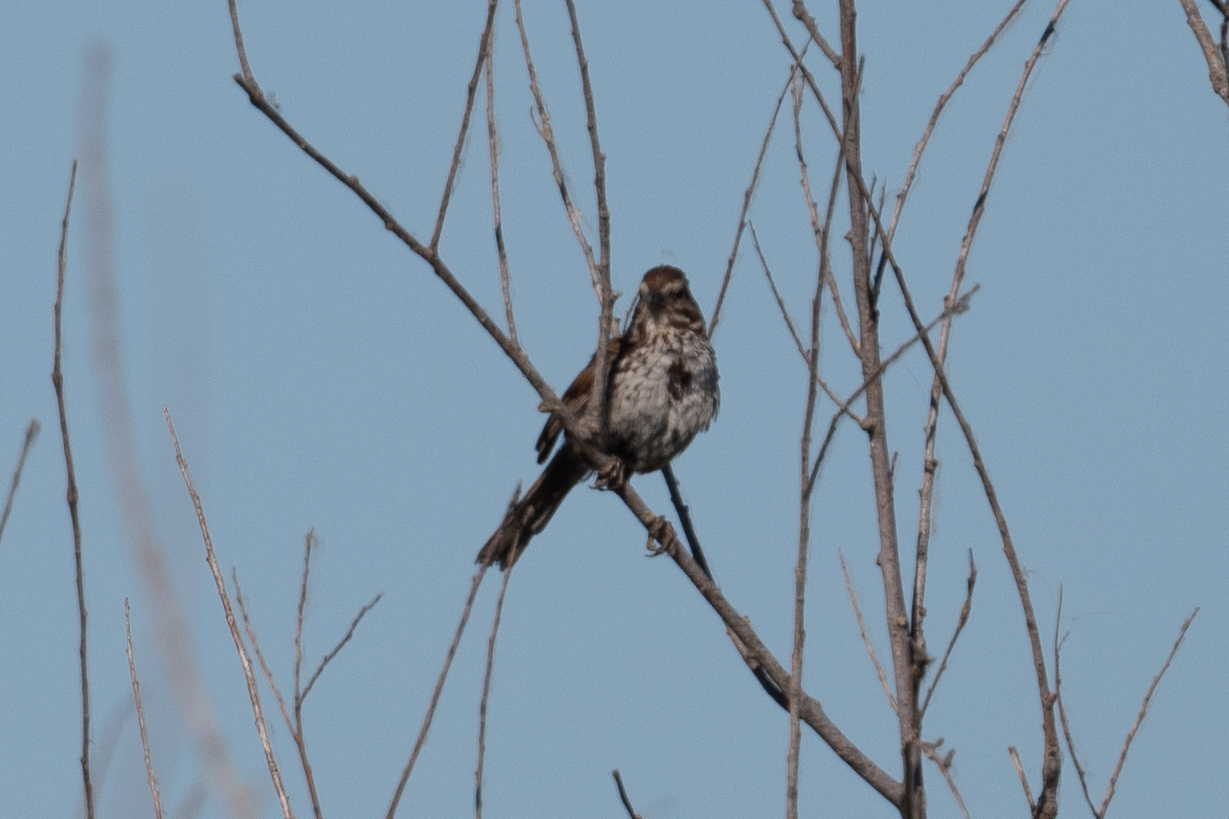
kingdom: Animalia
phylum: Chordata
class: Aves
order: Passeriformes
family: Passerellidae
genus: Melospiza
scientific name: Melospiza melodia
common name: Song sparrow
